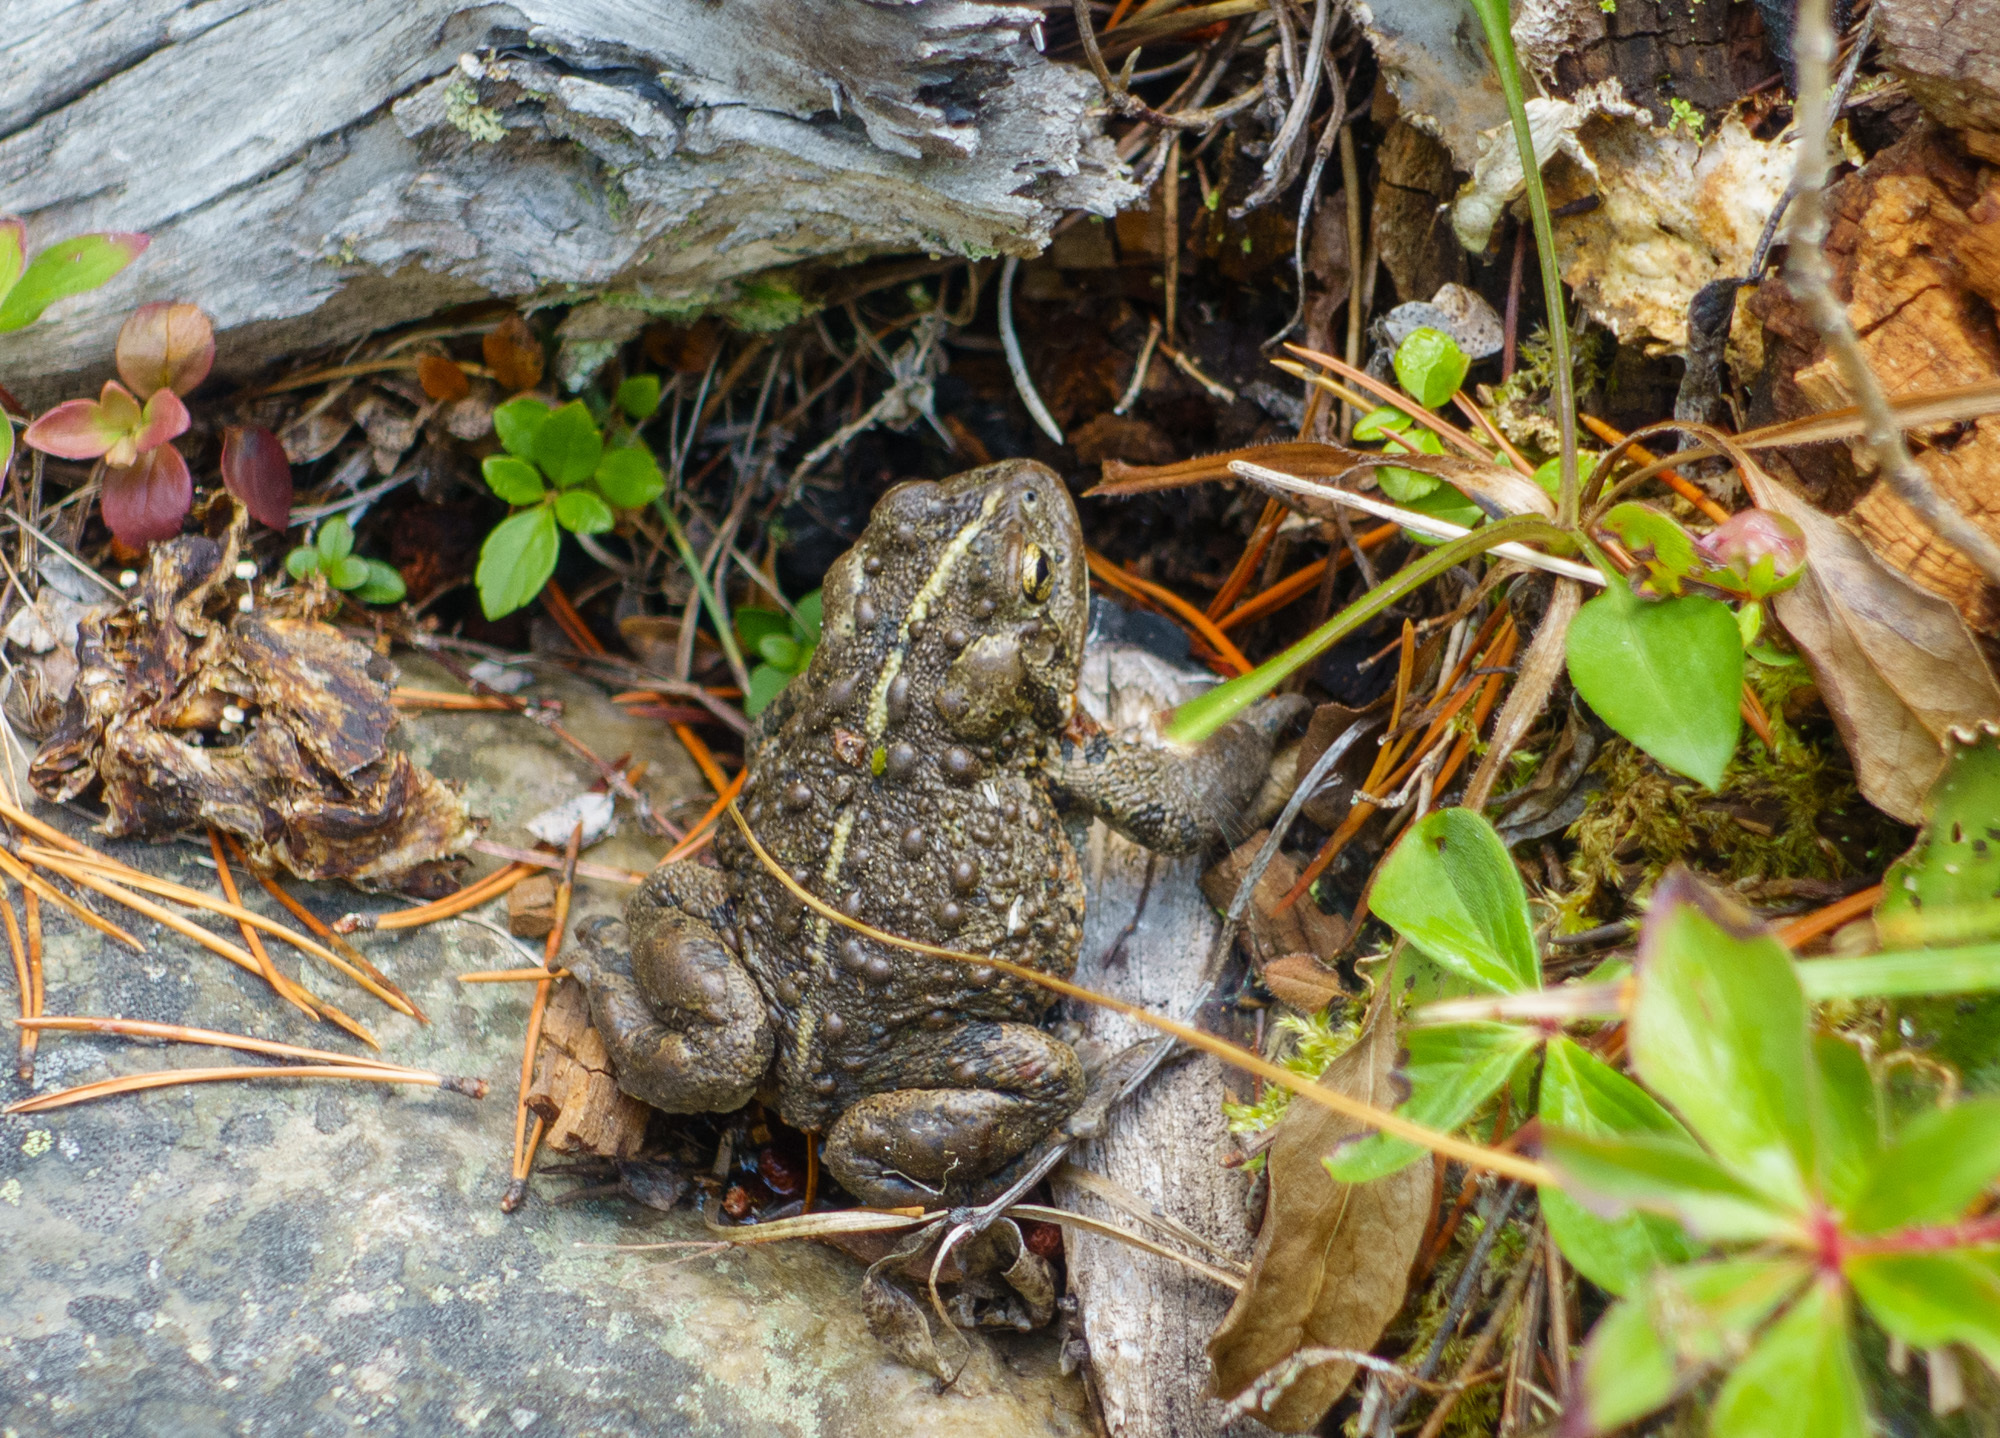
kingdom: Animalia
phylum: Chordata
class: Amphibia
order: Anura
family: Bufonidae
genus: Anaxyrus
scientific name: Anaxyrus boreas
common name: Western toad
